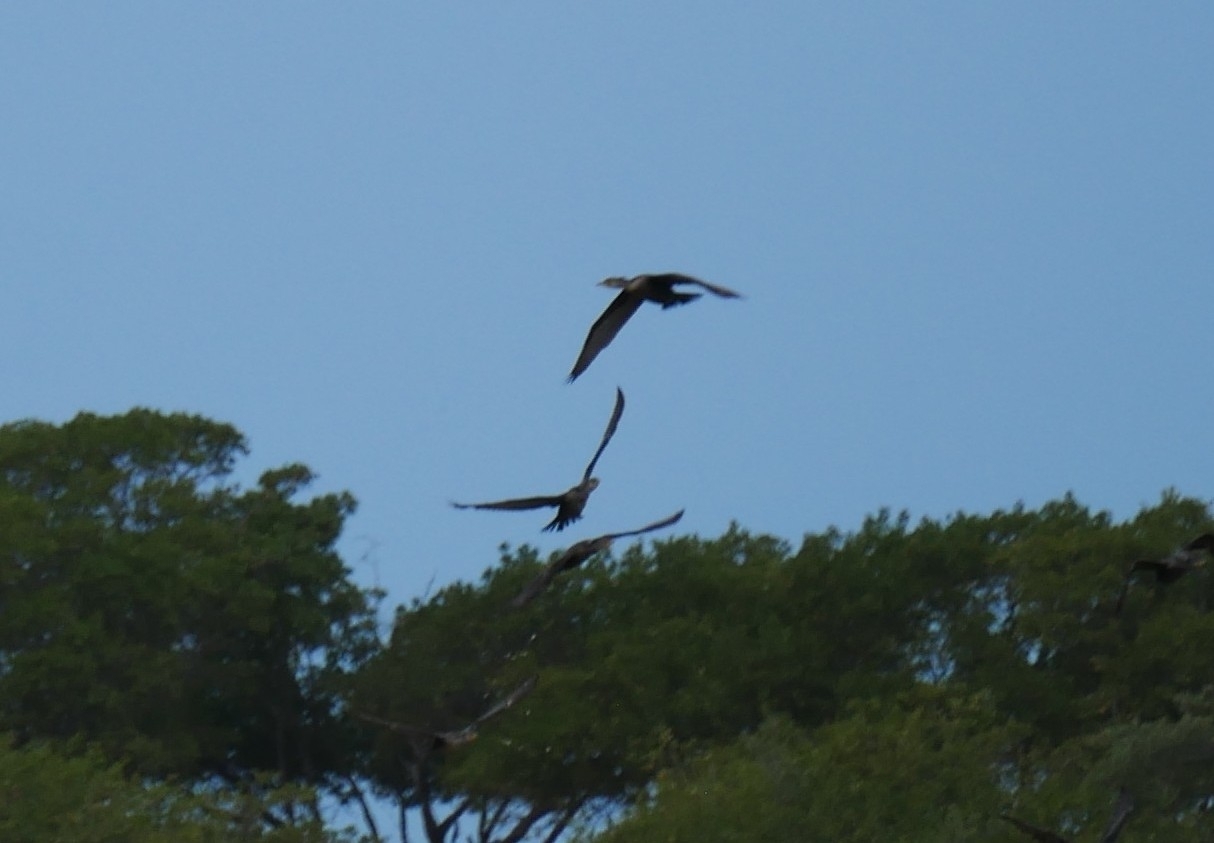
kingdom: Animalia
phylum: Chordata
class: Aves
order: Suliformes
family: Phalacrocoracidae
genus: Phalacrocorax
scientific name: Phalacrocorax brasilianus
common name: Neotropic cormorant
